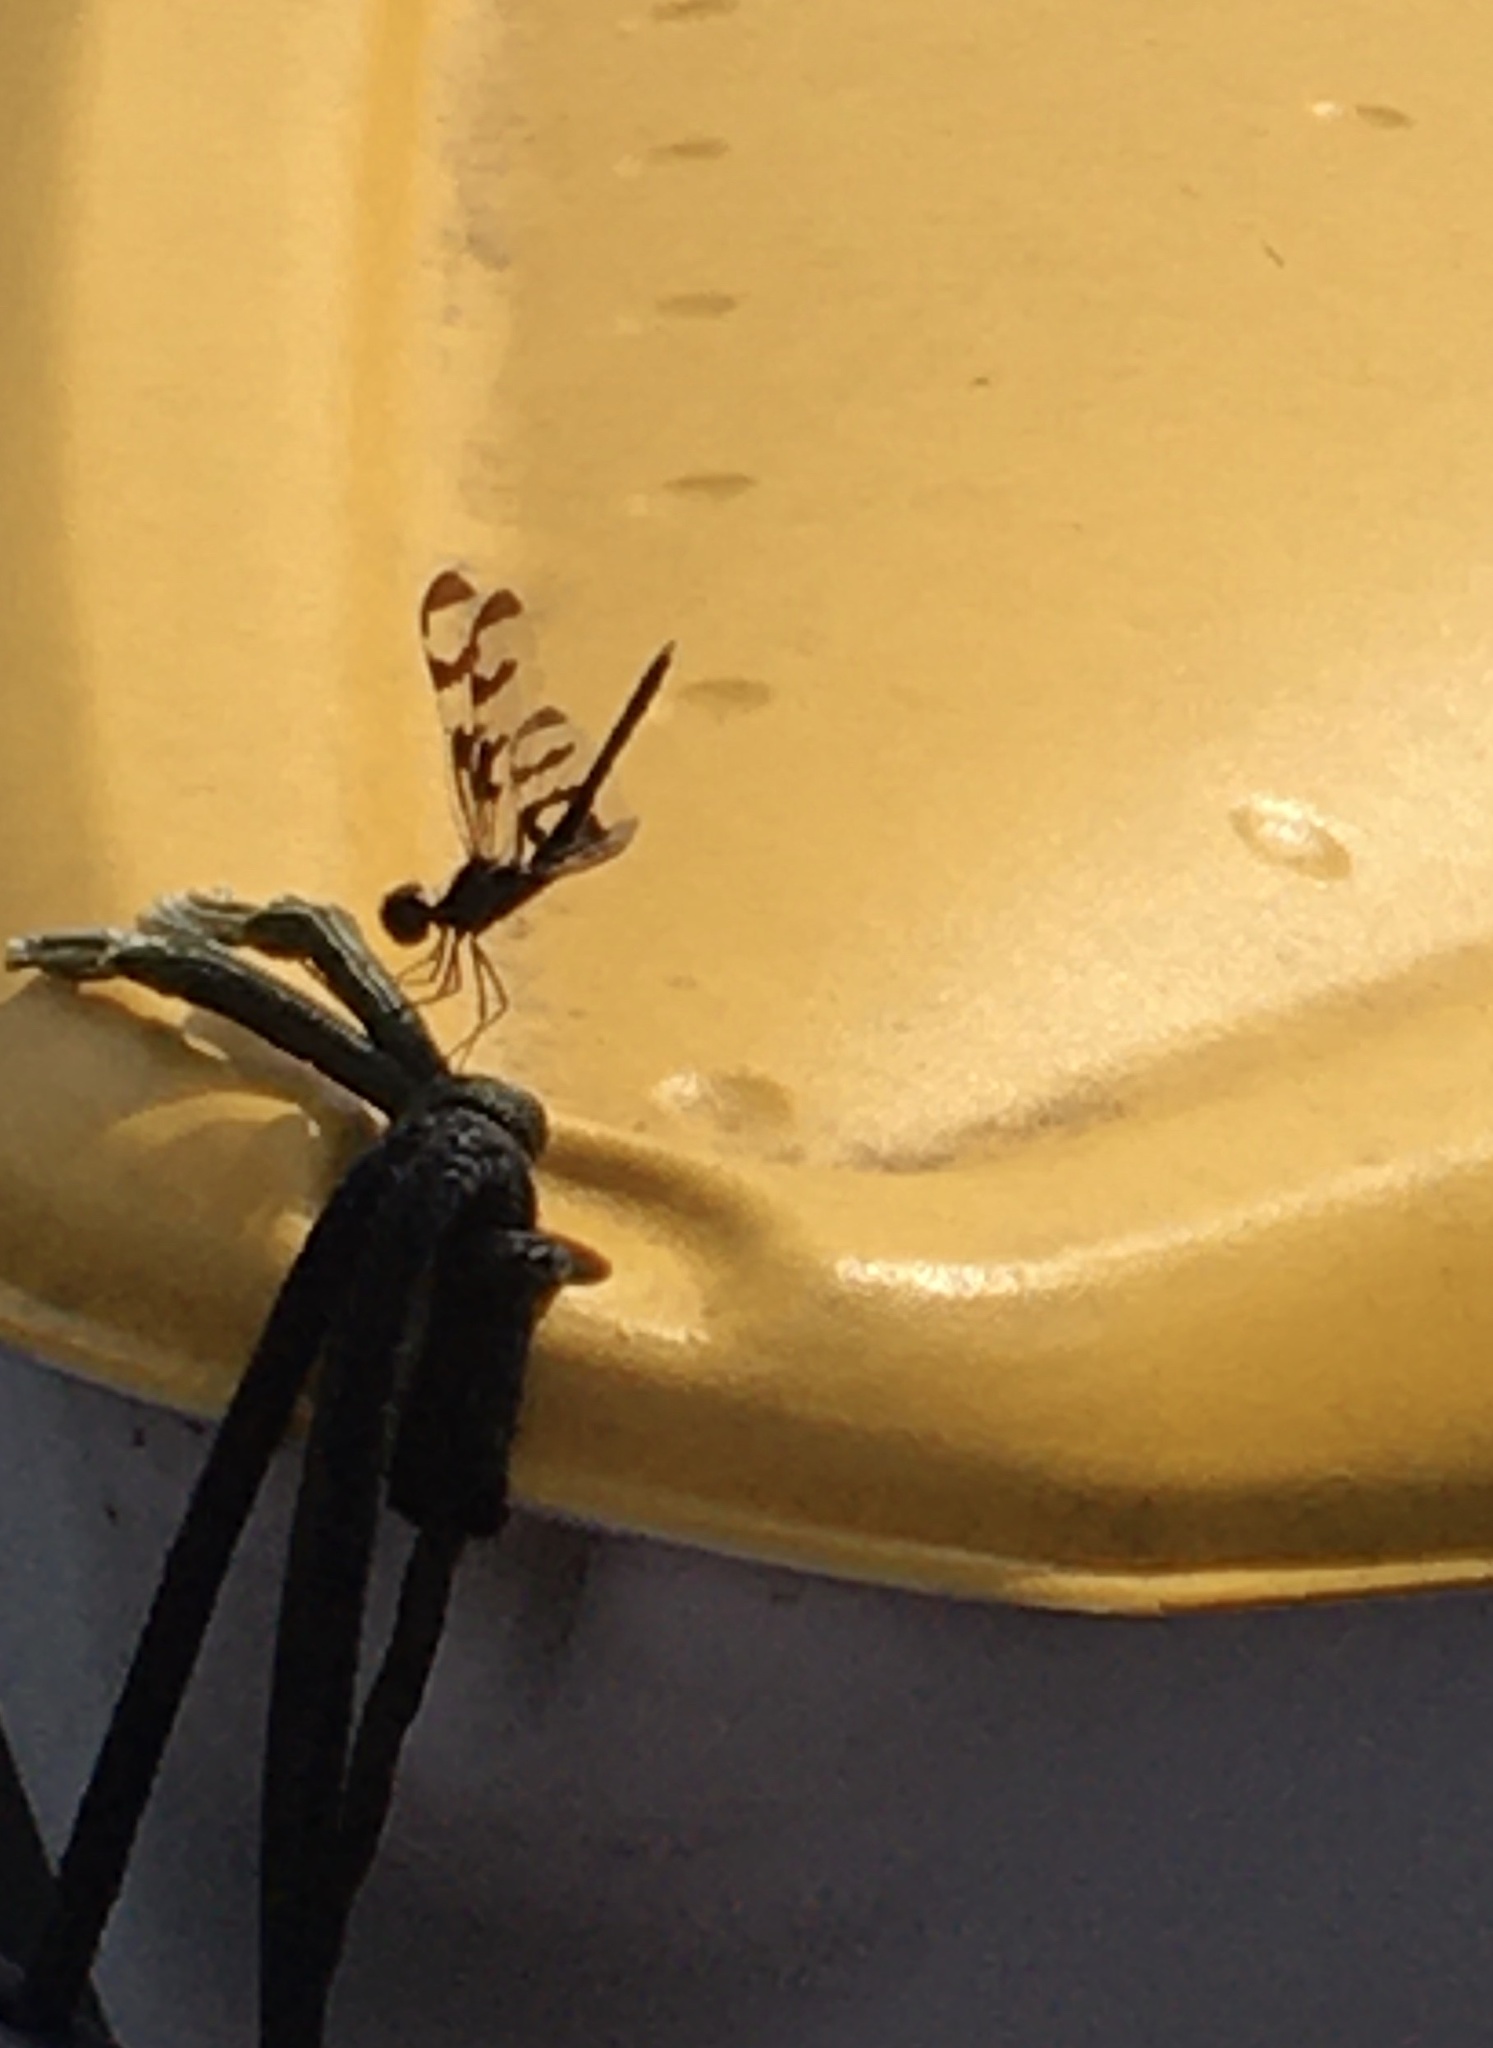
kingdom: Animalia
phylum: Arthropoda
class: Insecta
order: Odonata
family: Libellulidae
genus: Celithemis
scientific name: Celithemis fasciata
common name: Banded pennant
